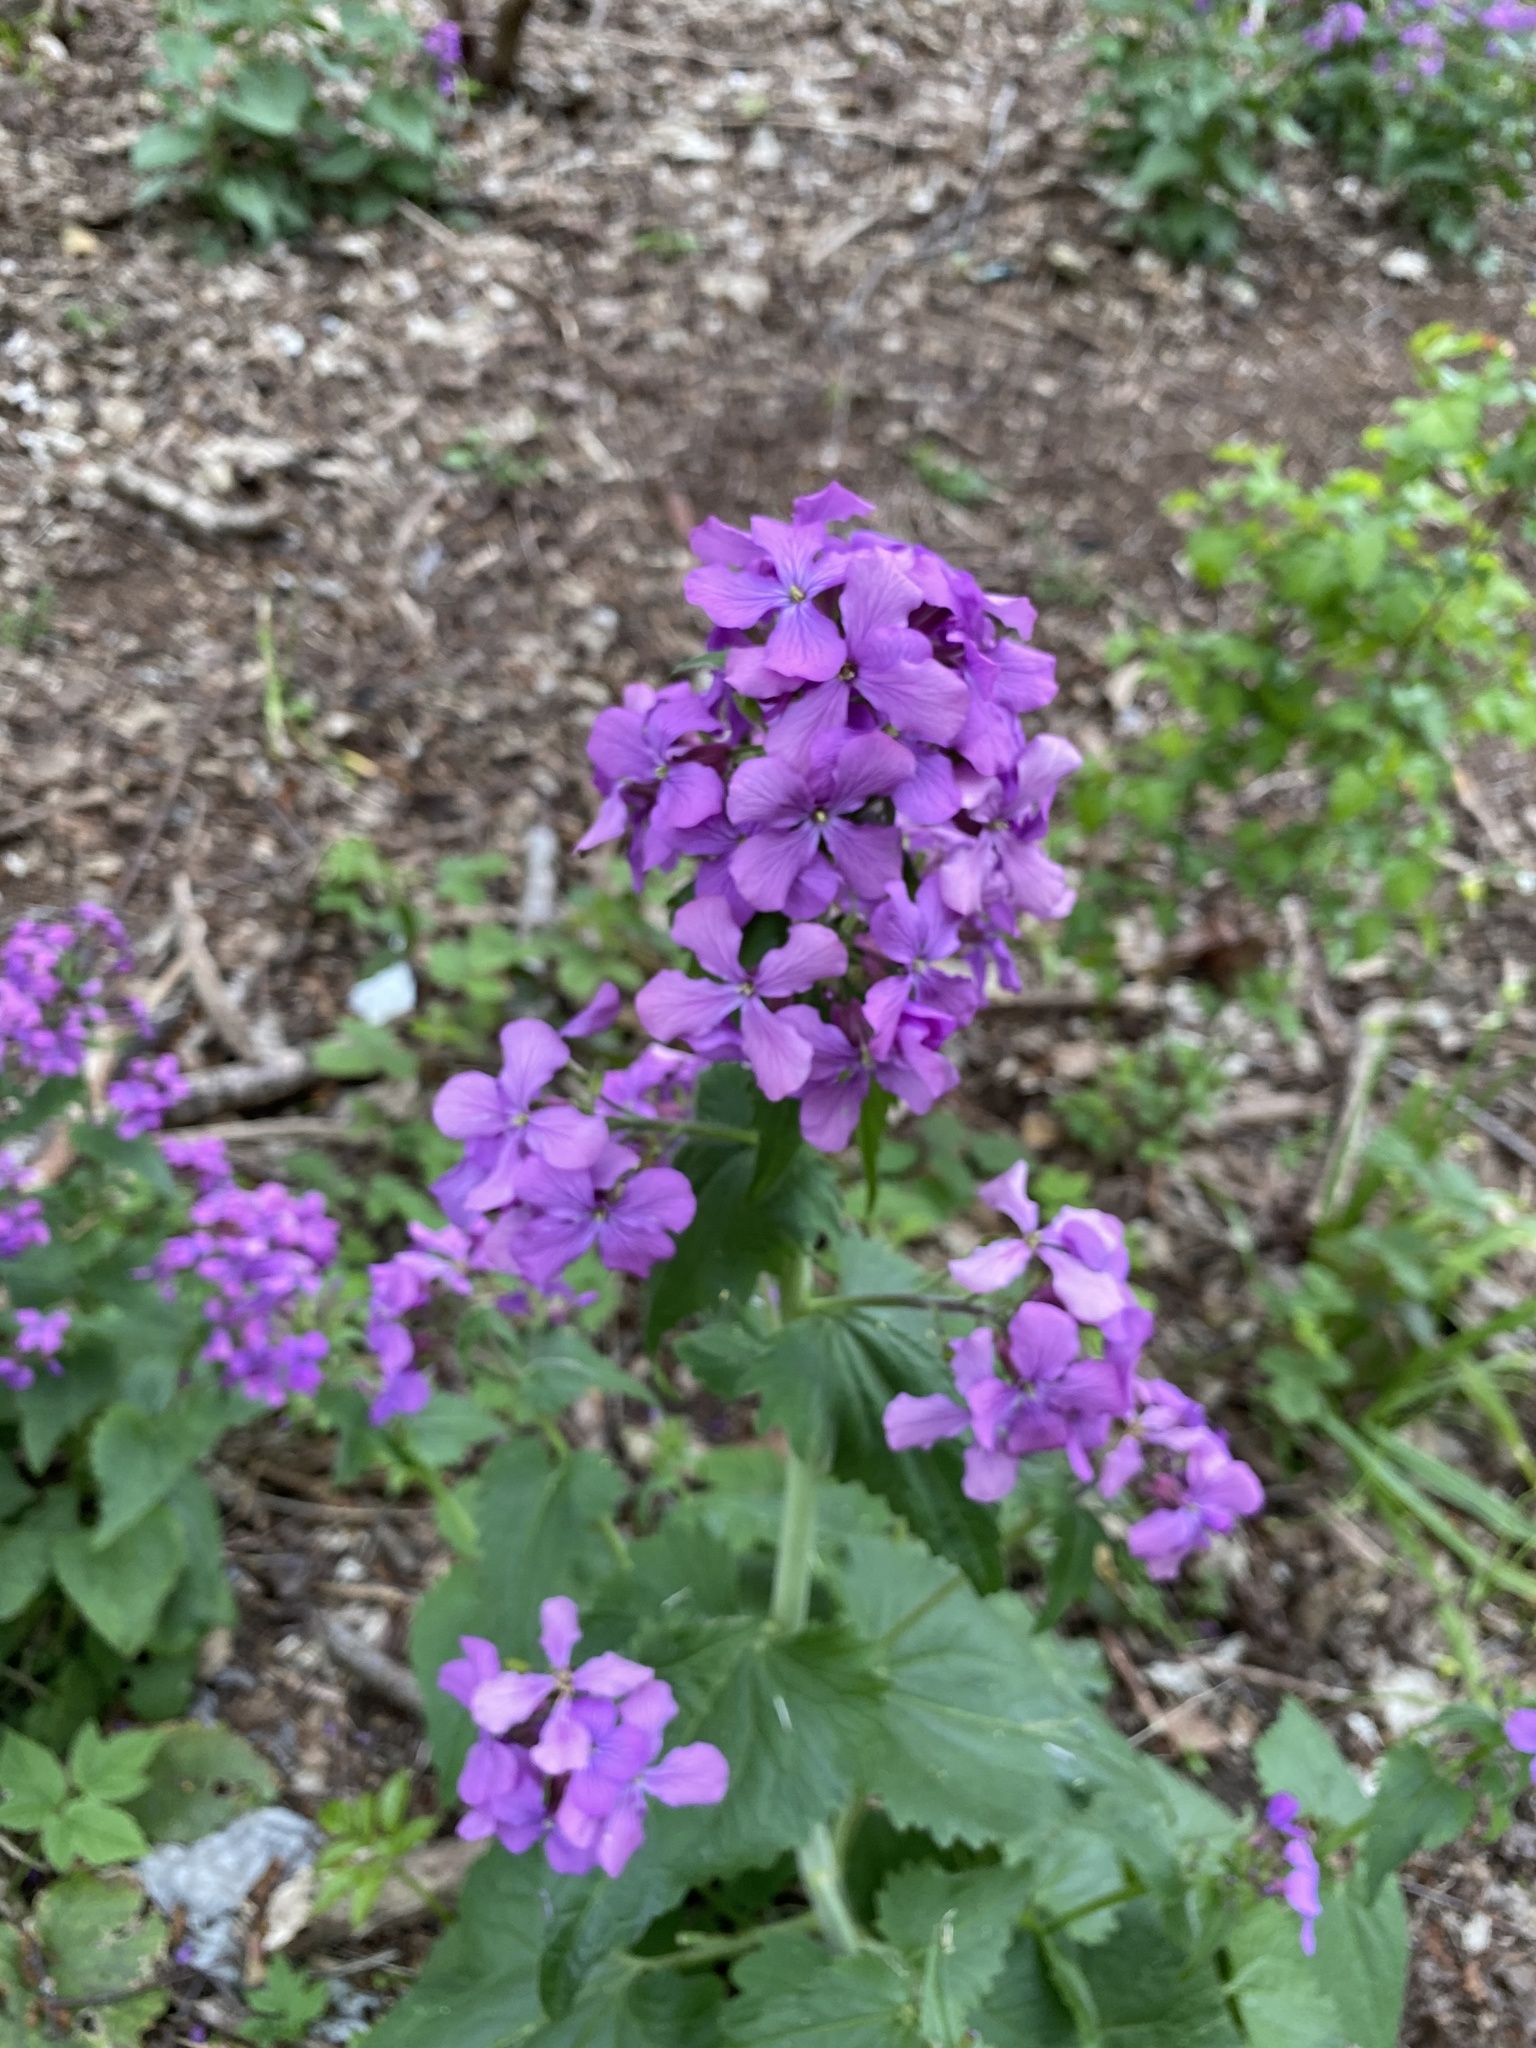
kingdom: Plantae
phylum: Tracheophyta
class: Magnoliopsida
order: Brassicales
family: Brassicaceae
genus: Lunaria
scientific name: Lunaria annua
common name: Honesty
